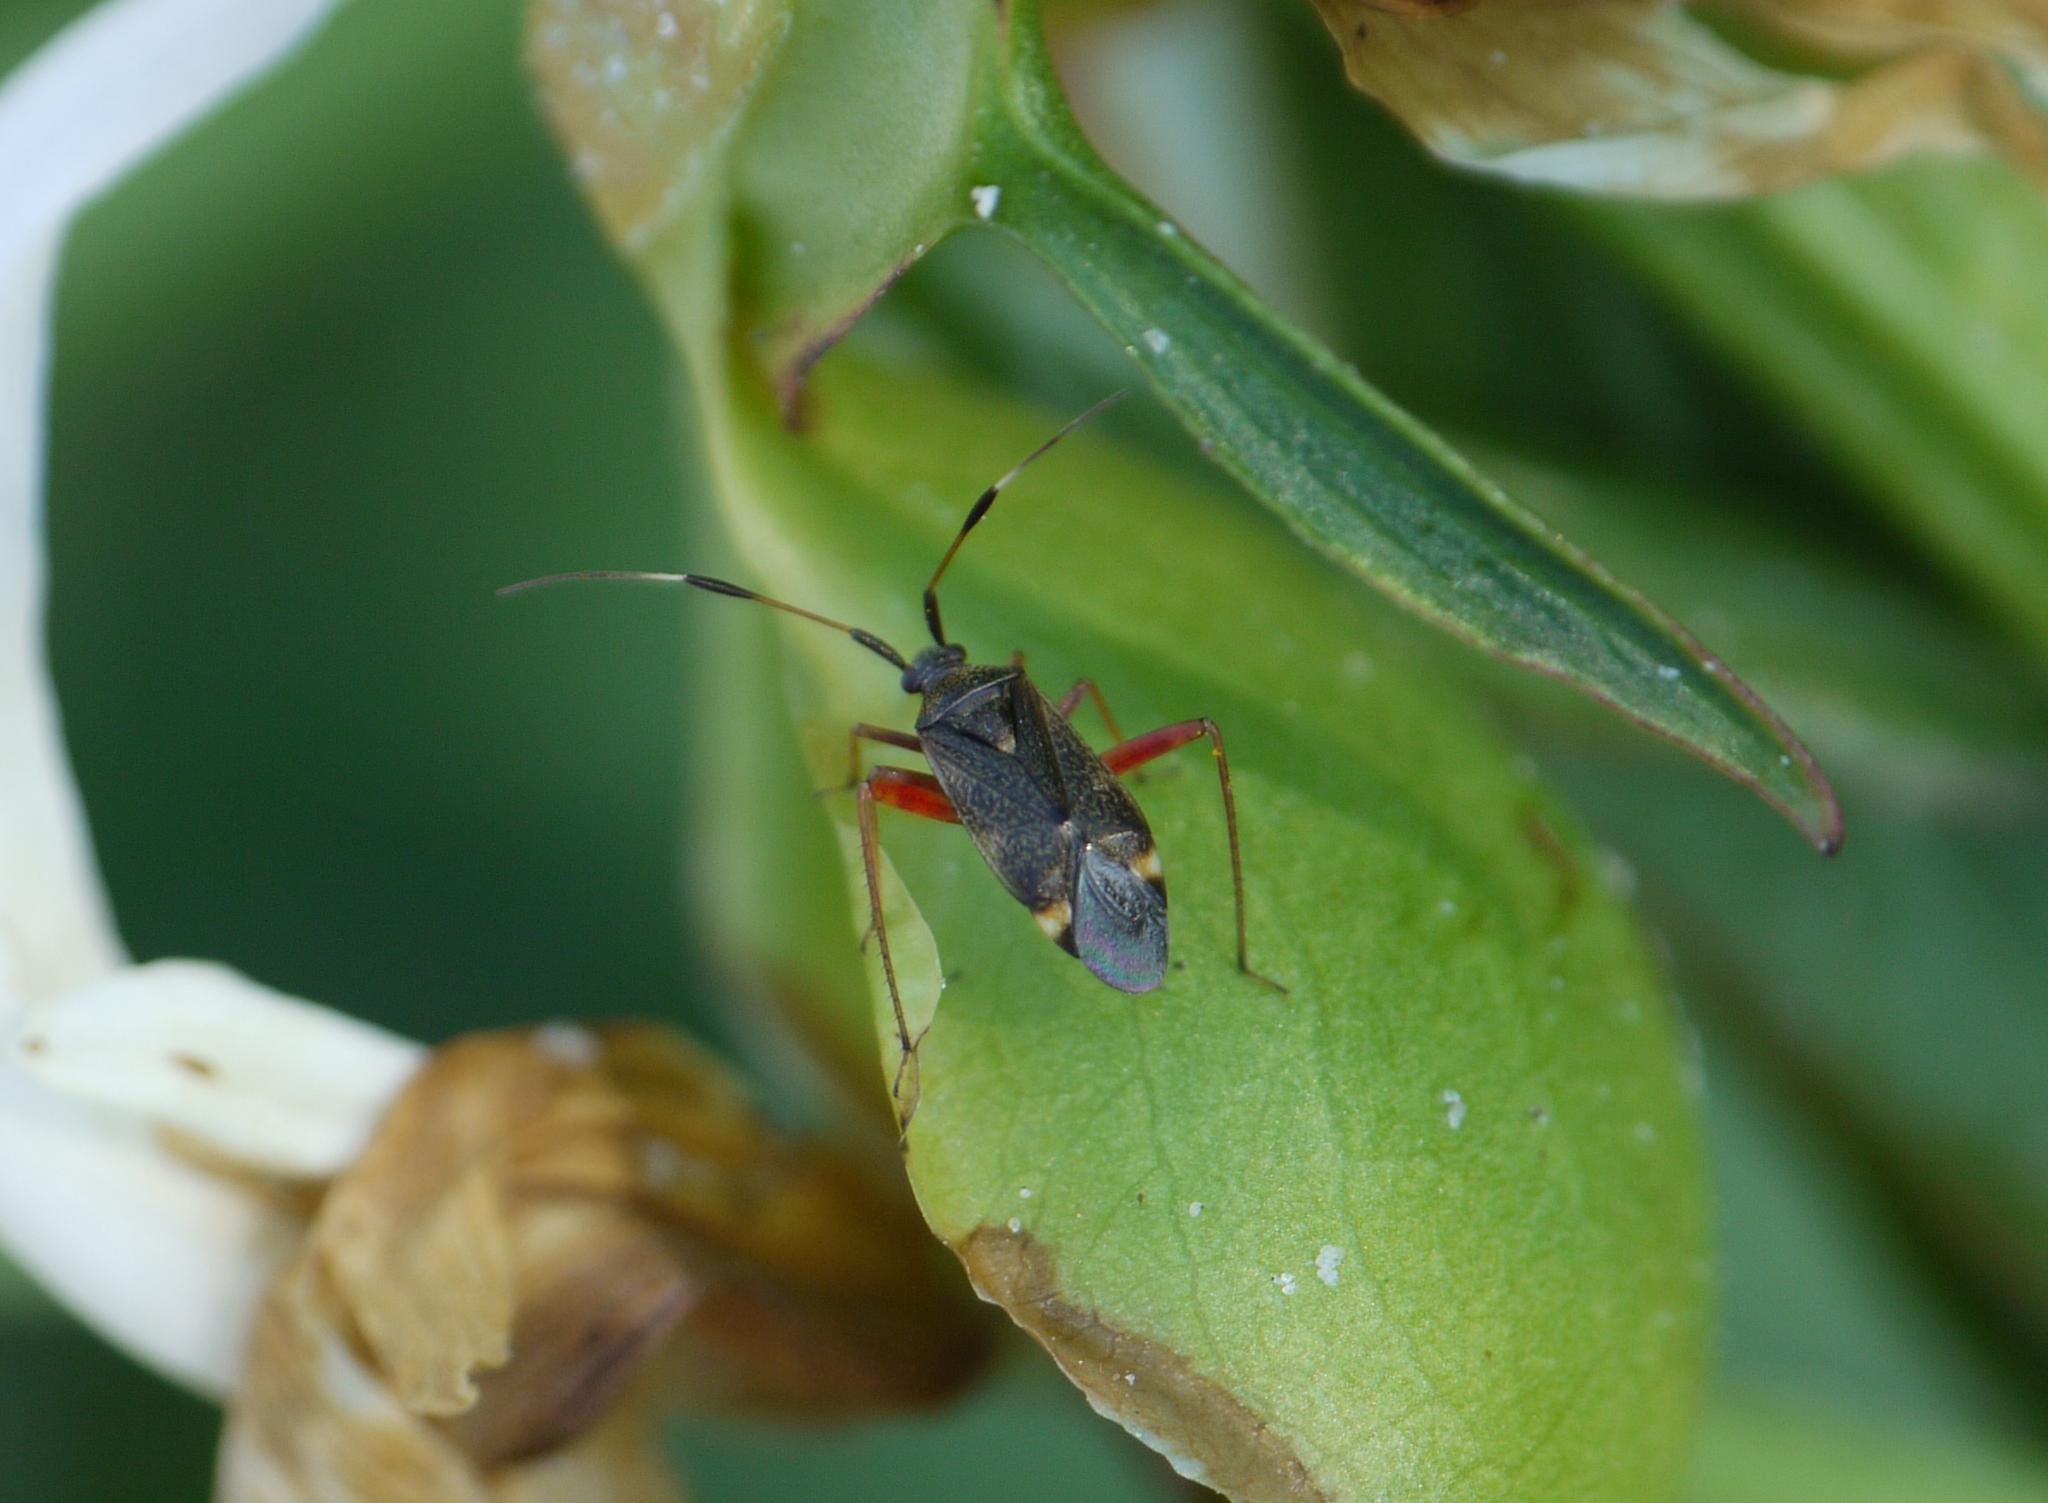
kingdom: Animalia
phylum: Arthropoda
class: Insecta
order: Hemiptera
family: Miridae
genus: Closterotomus
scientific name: Closterotomus biclavatus
